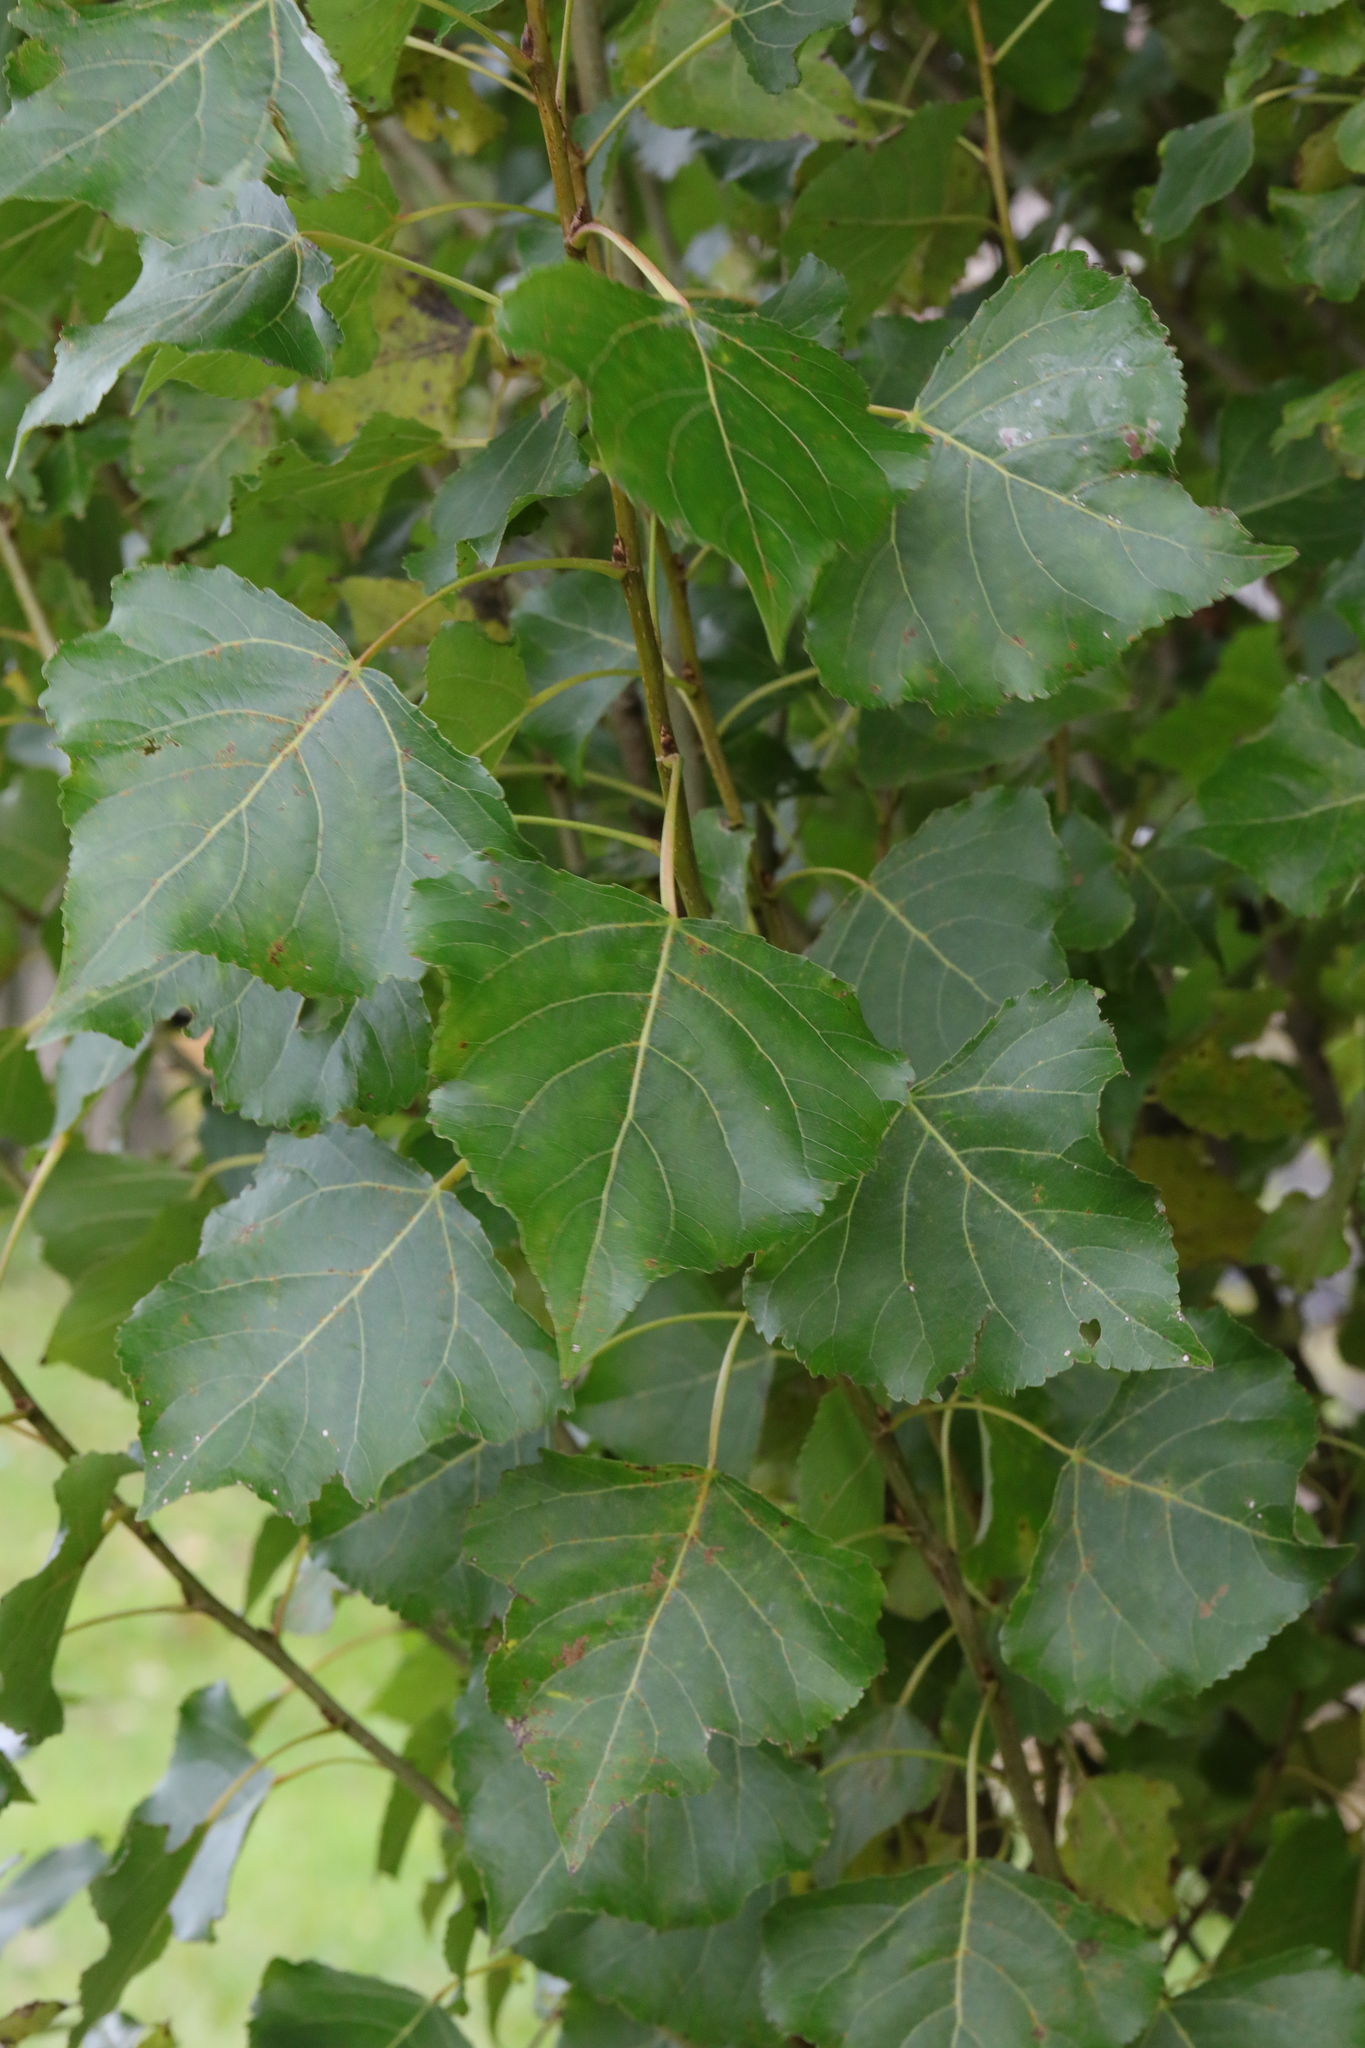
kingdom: Plantae
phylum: Tracheophyta
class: Magnoliopsida
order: Malpighiales
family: Salicaceae
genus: Populus
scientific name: Populus nigra
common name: Black poplar
